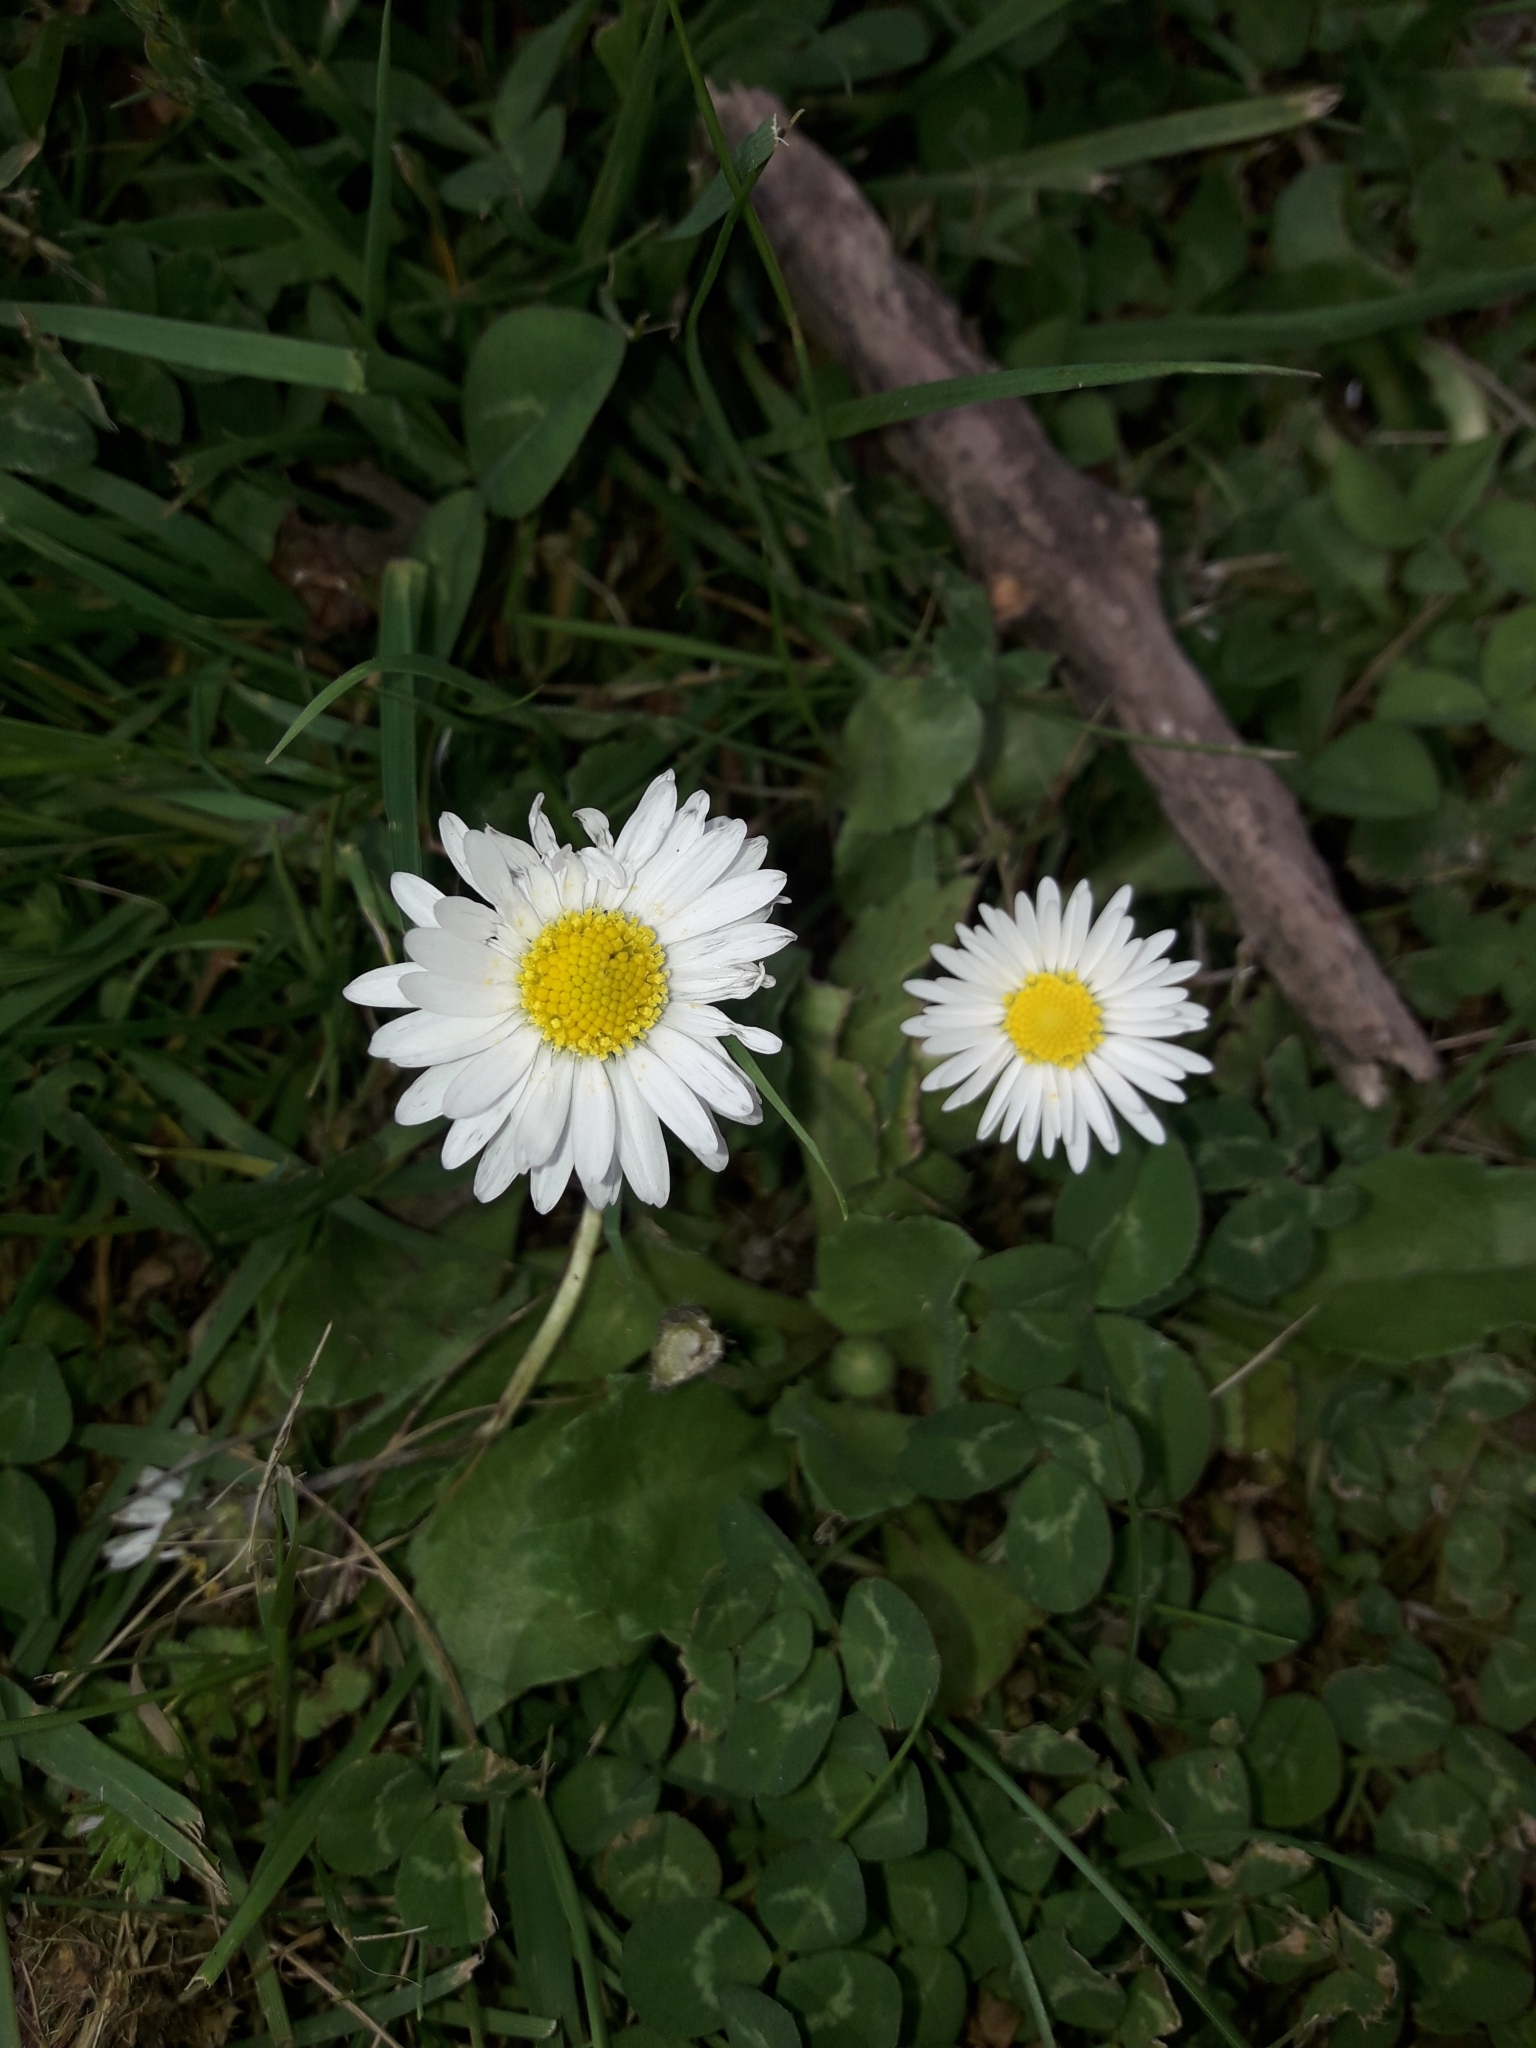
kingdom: Plantae
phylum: Tracheophyta
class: Magnoliopsida
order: Asterales
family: Asteraceae
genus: Bellis
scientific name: Bellis perennis
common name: Lawndaisy
